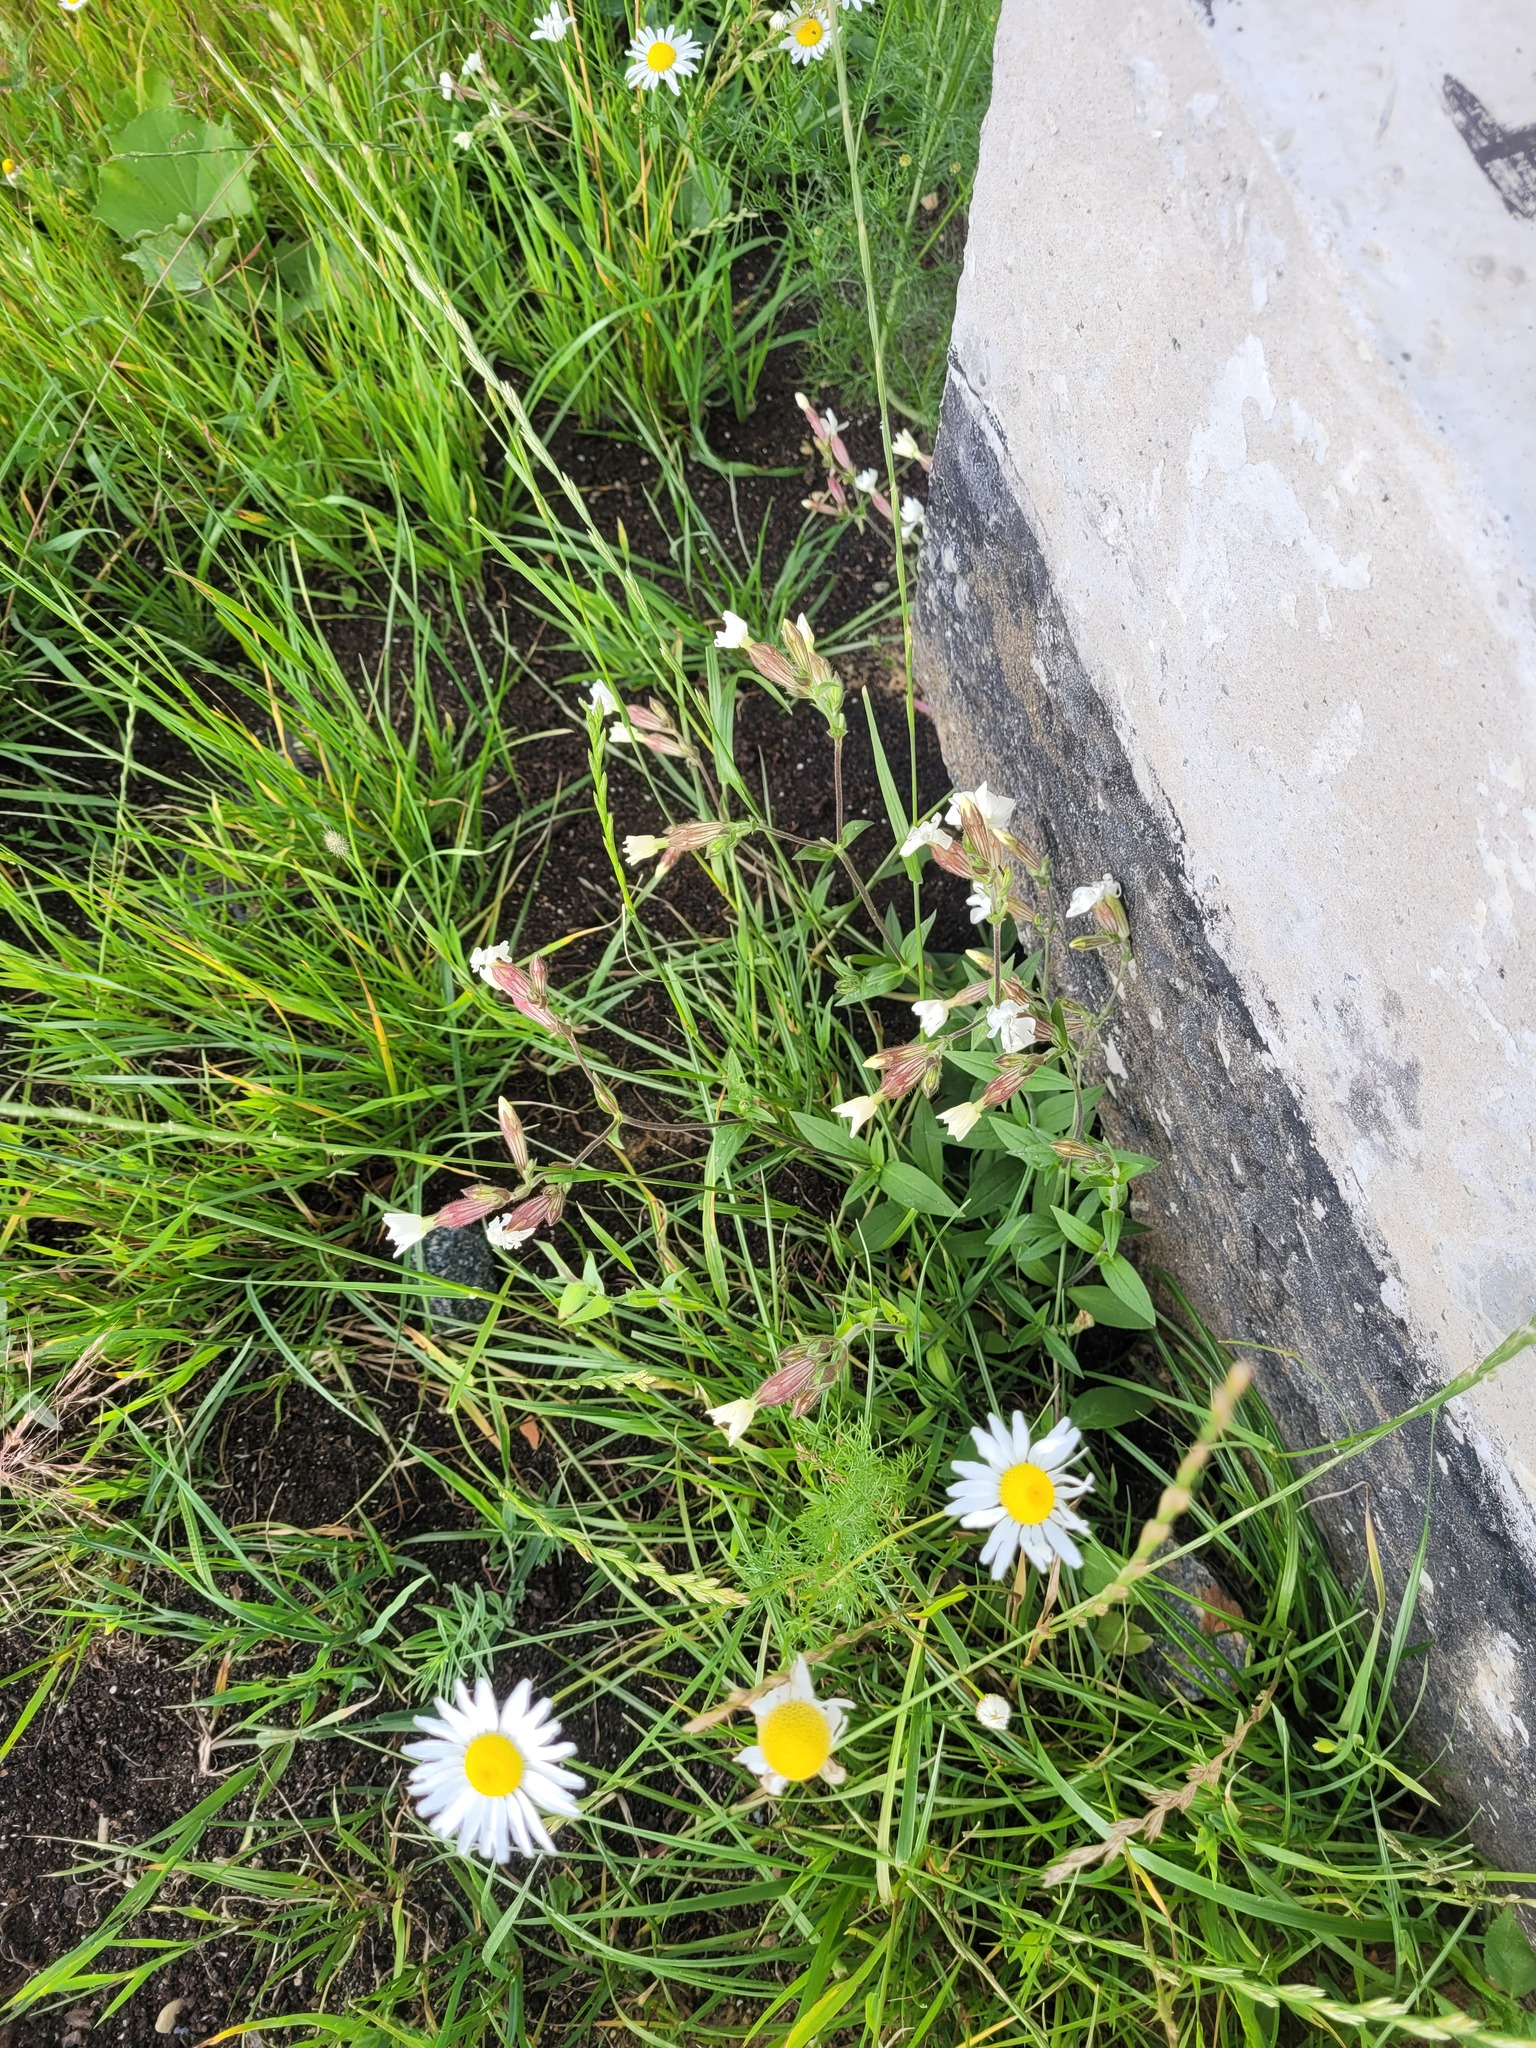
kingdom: Plantae
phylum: Tracheophyta
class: Magnoliopsida
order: Caryophyllales
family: Caryophyllaceae
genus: Silene
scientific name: Silene latifolia
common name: White campion
